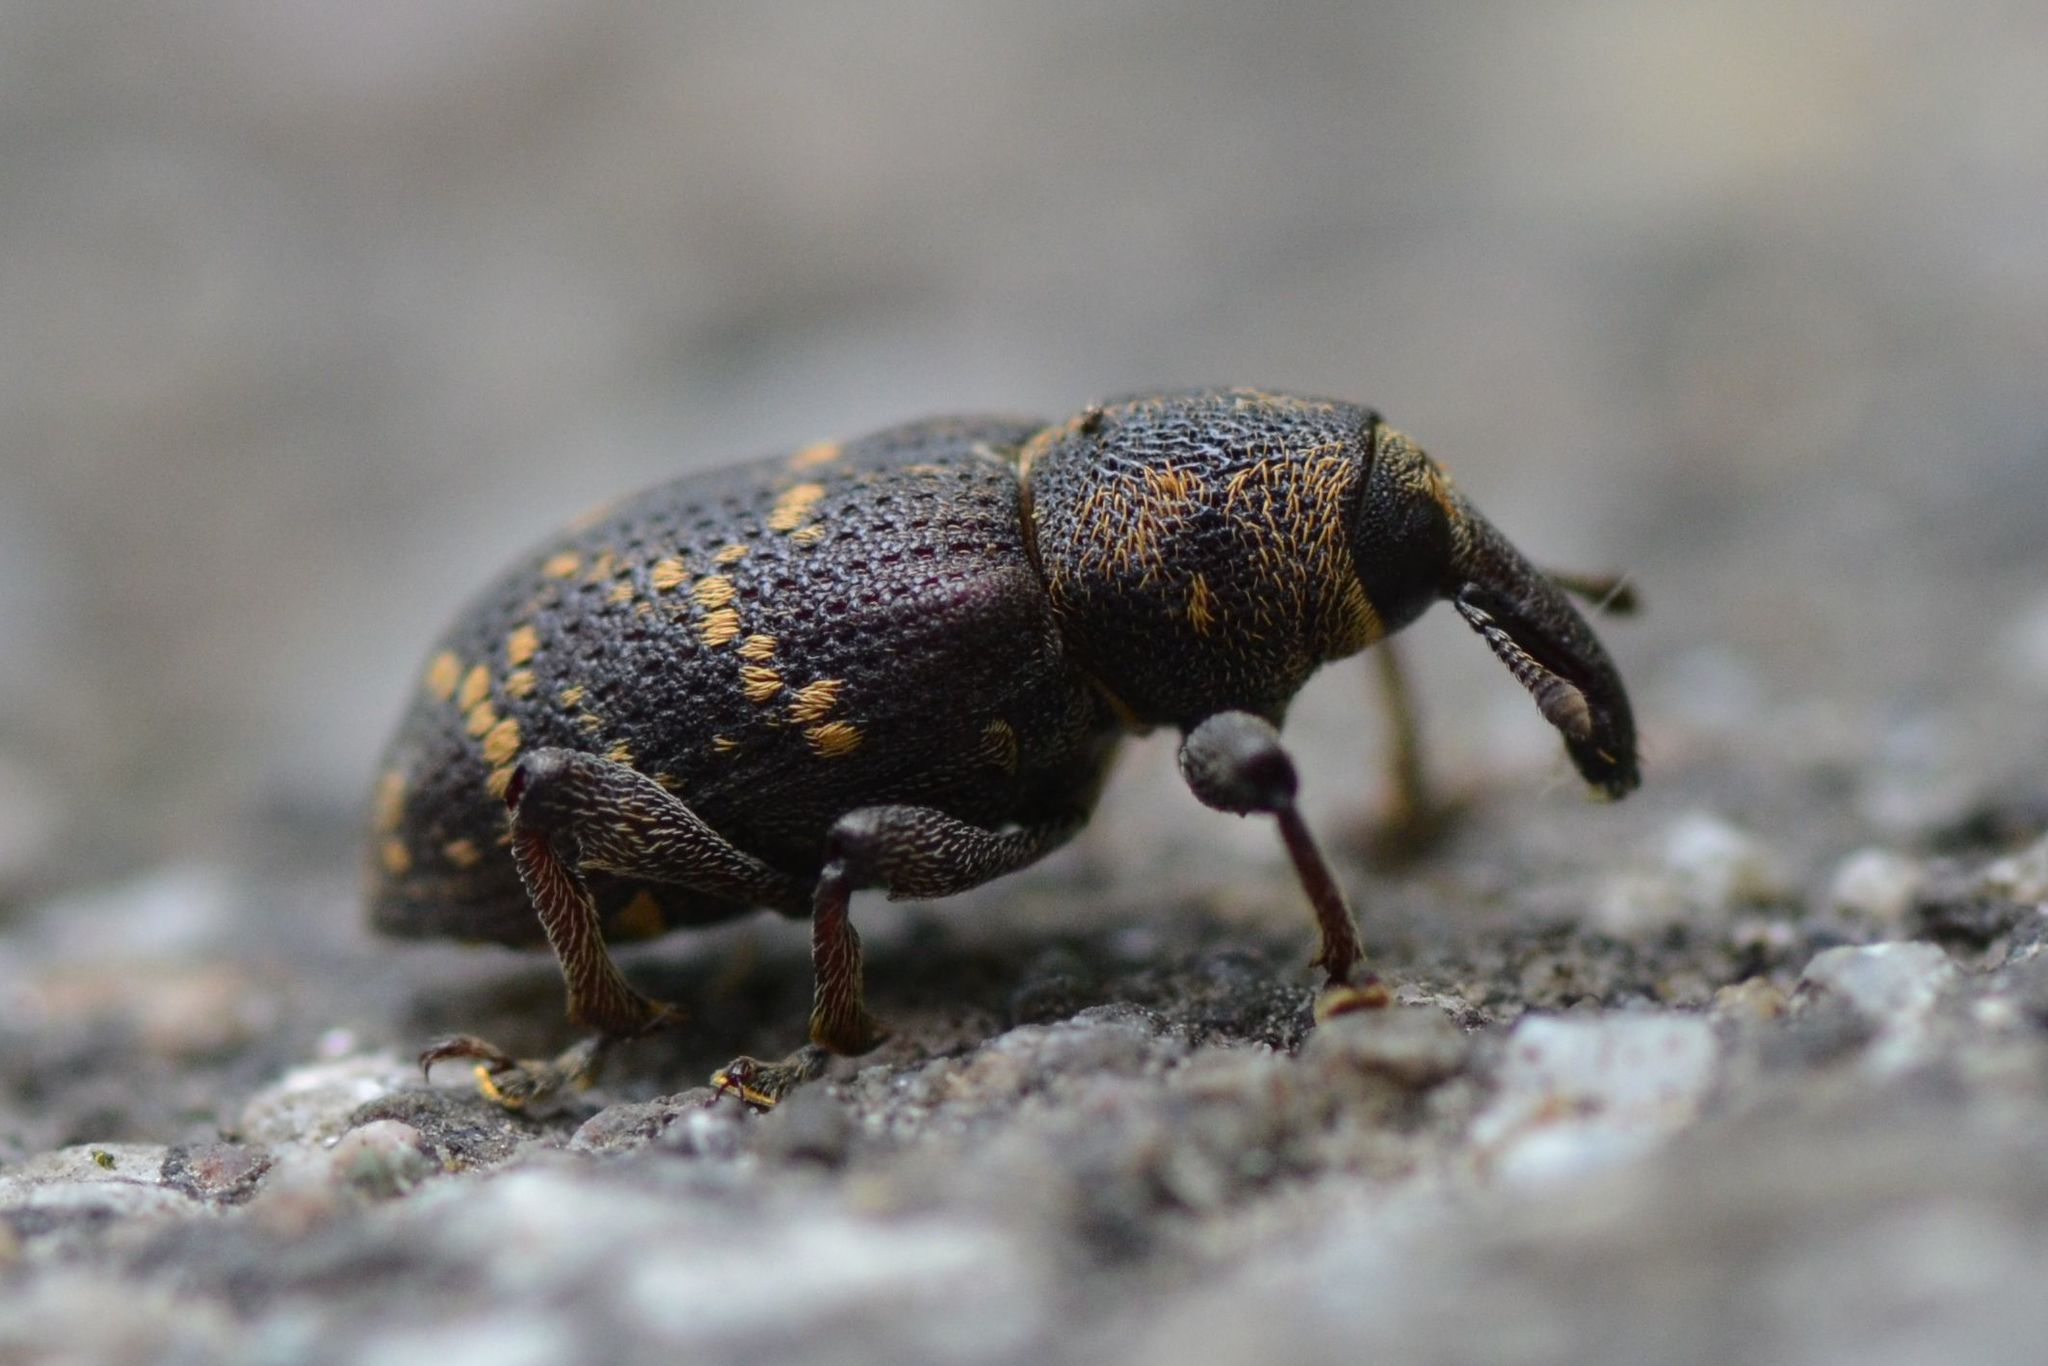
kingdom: Animalia
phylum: Arthropoda
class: Insecta
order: Coleoptera
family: Curculionidae
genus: Hylobius
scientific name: Hylobius abietis
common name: Large pine weevil
